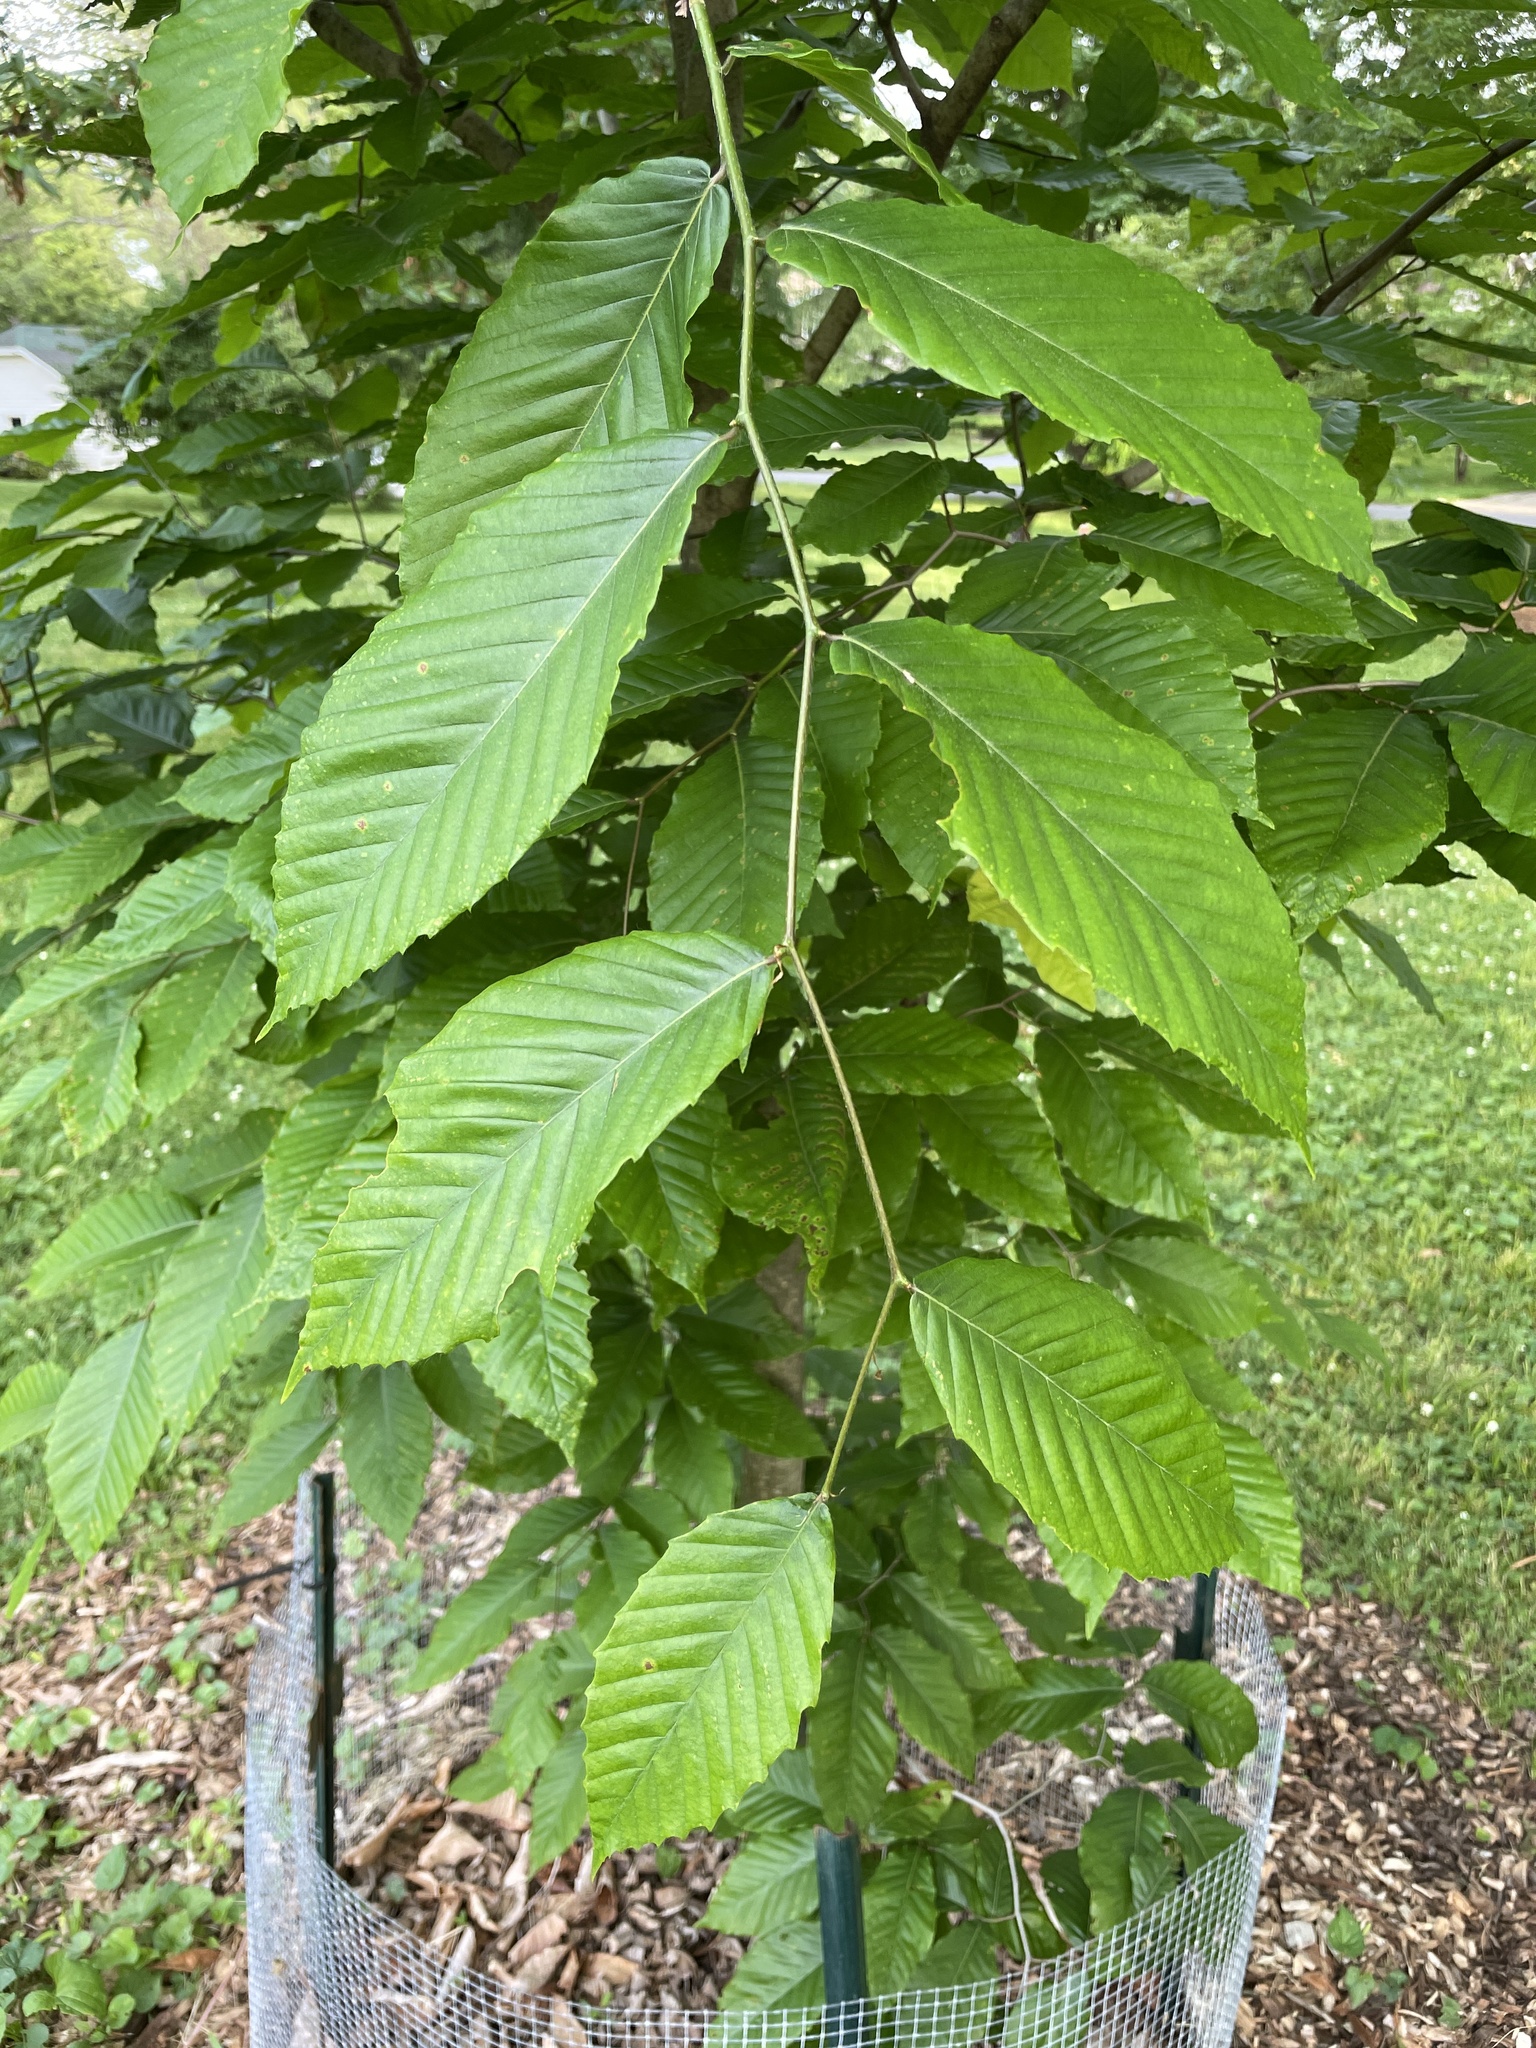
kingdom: Plantae
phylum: Tracheophyta
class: Magnoliopsida
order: Fagales
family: Fagaceae
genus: Fagus
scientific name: Fagus grandifolia
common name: American beech
